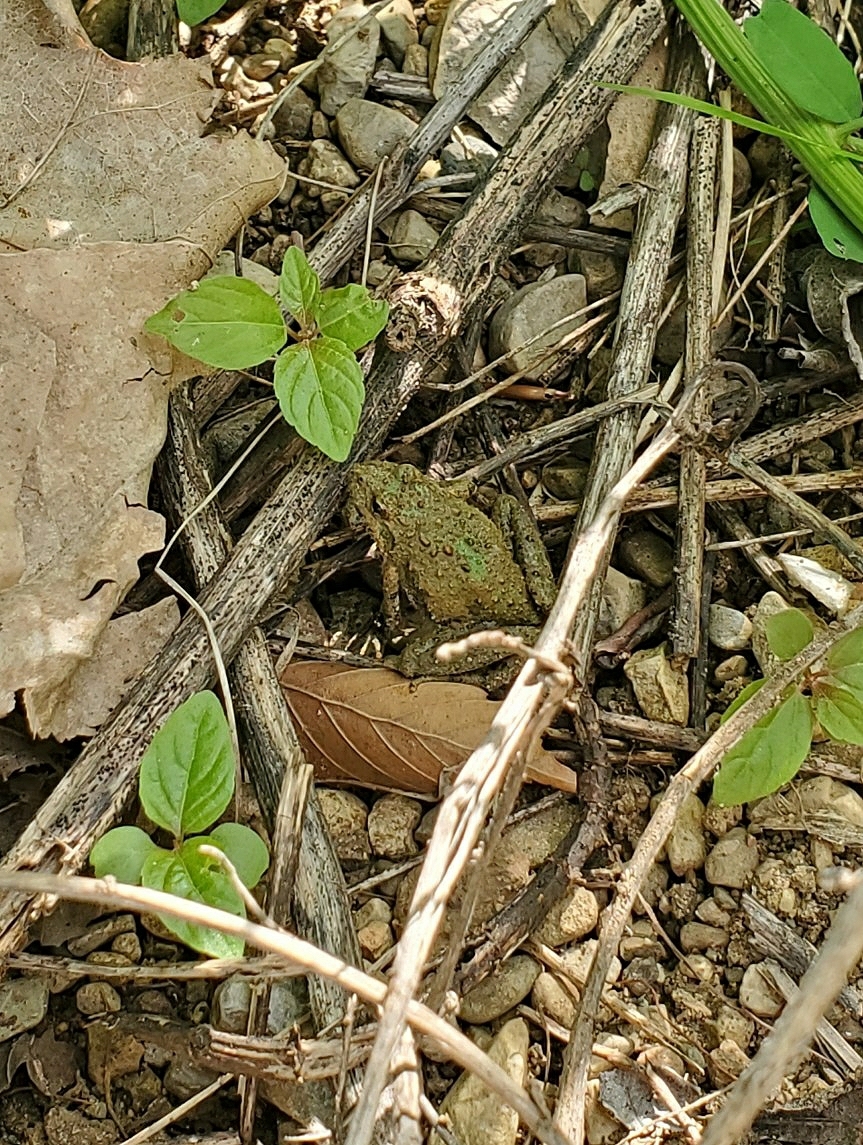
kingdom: Animalia
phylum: Chordata
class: Amphibia
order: Anura
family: Hylidae
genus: Acris
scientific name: Acris blanchardi
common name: Blanchard's cricket frog
